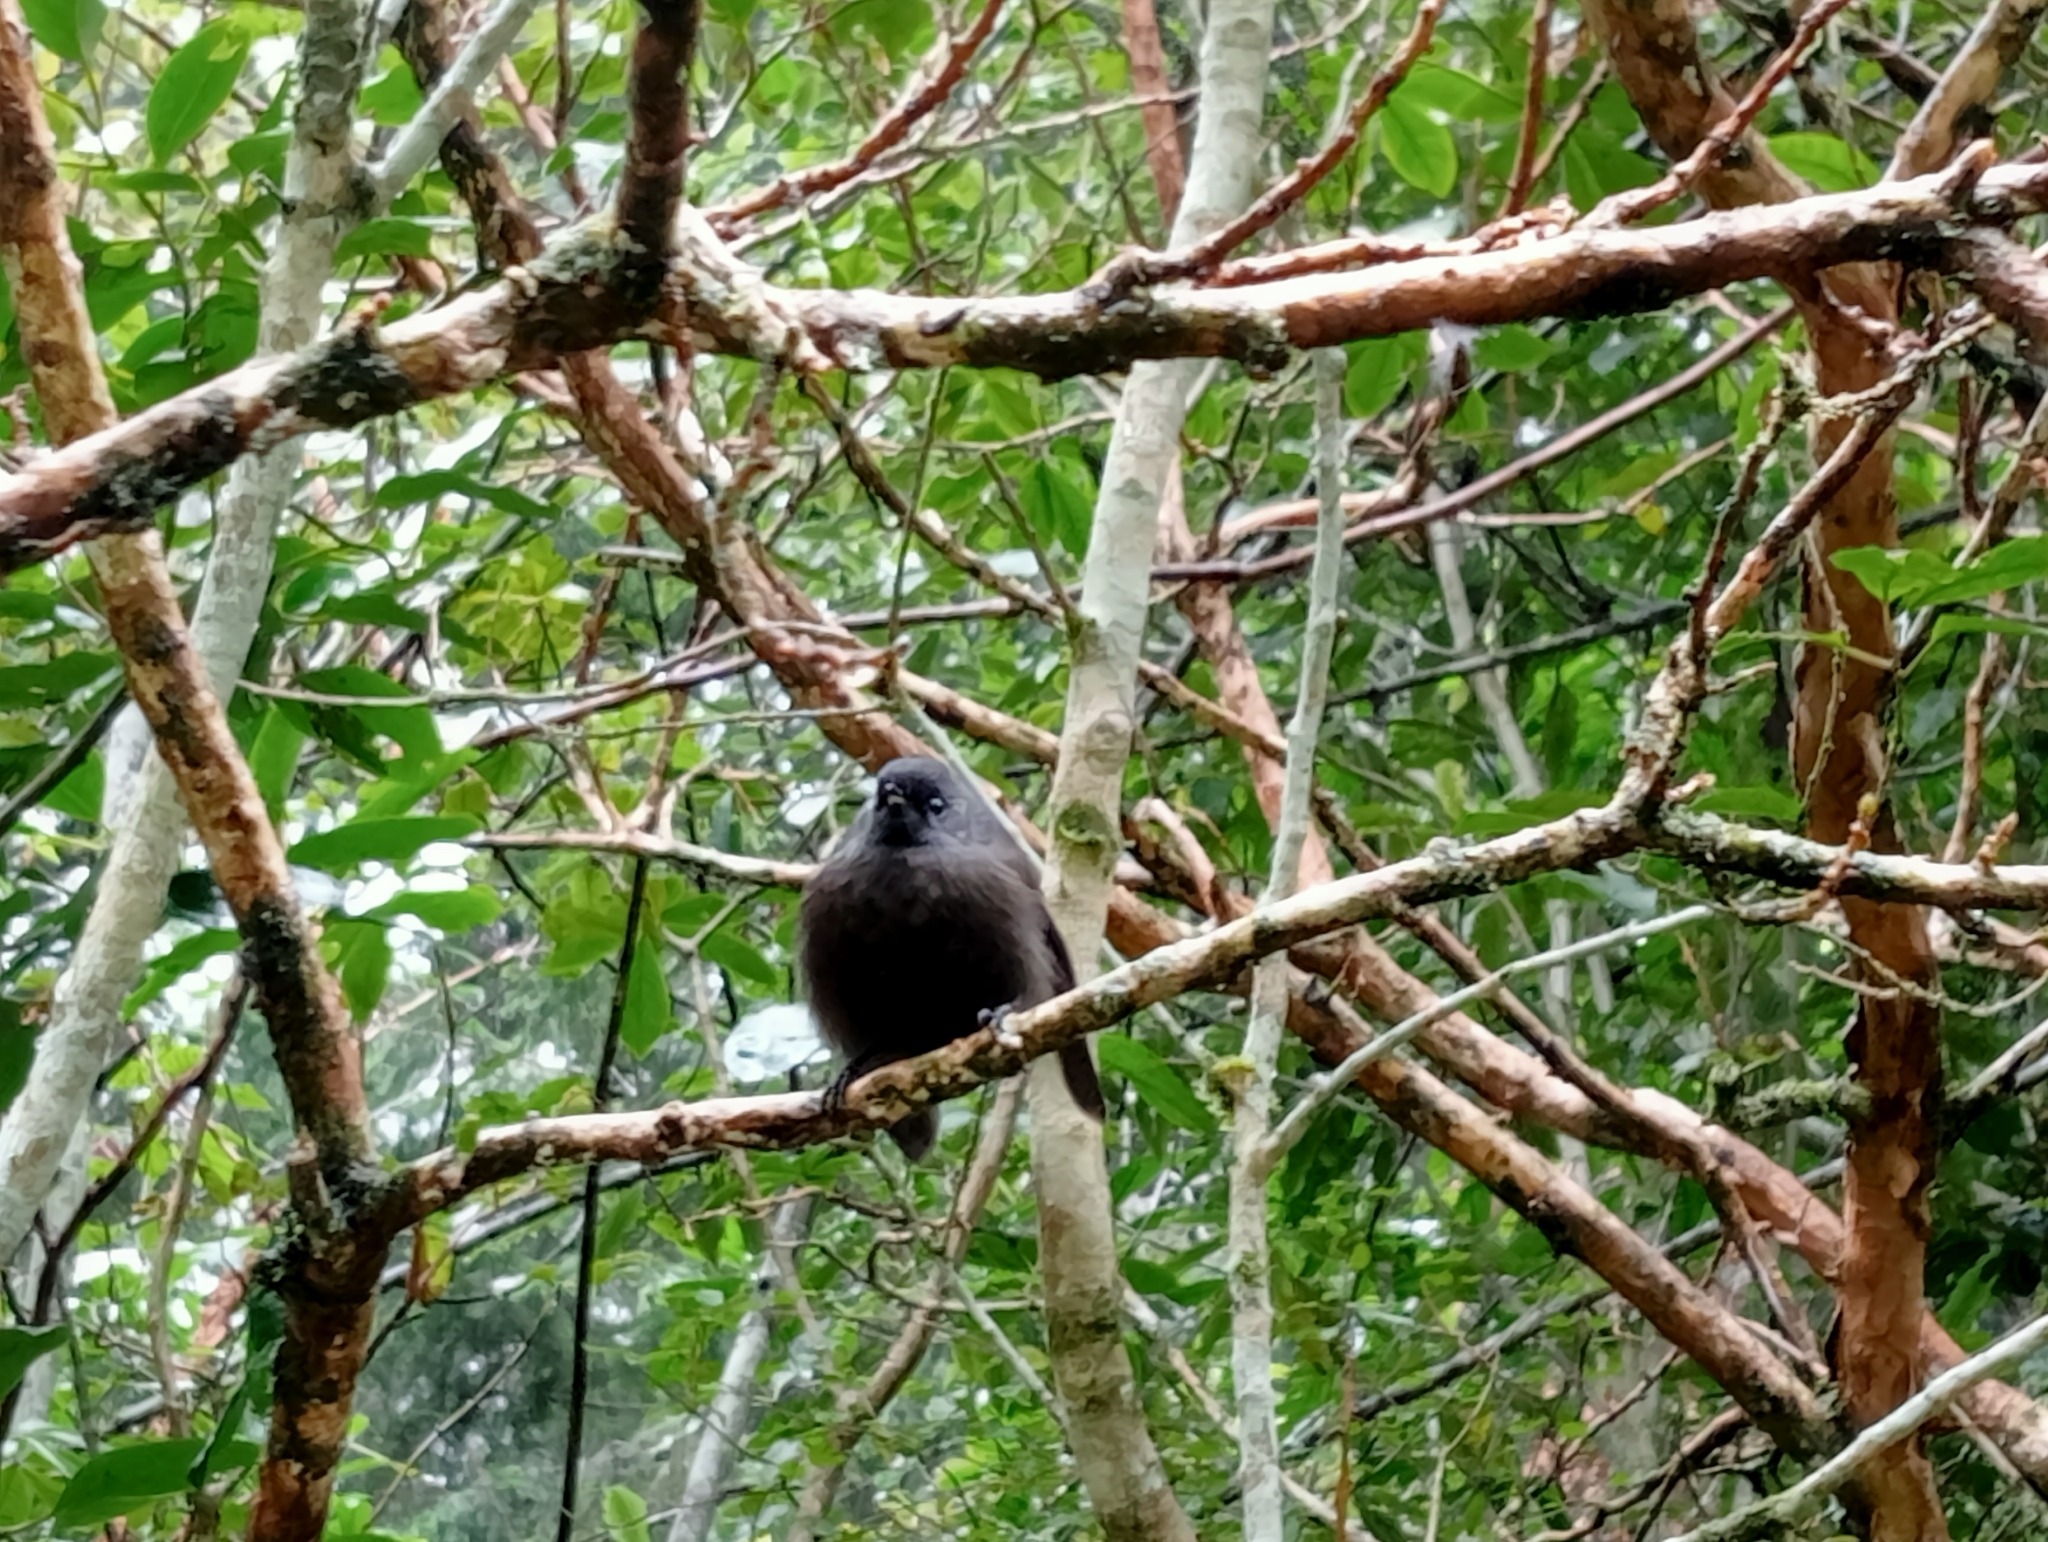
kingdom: Animalia
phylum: Chordata
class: Aves
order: Passeriformes
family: Rhipiduridae
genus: Rhipidura
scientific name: Rhipidura fuliginosa
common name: New zealand fantail
